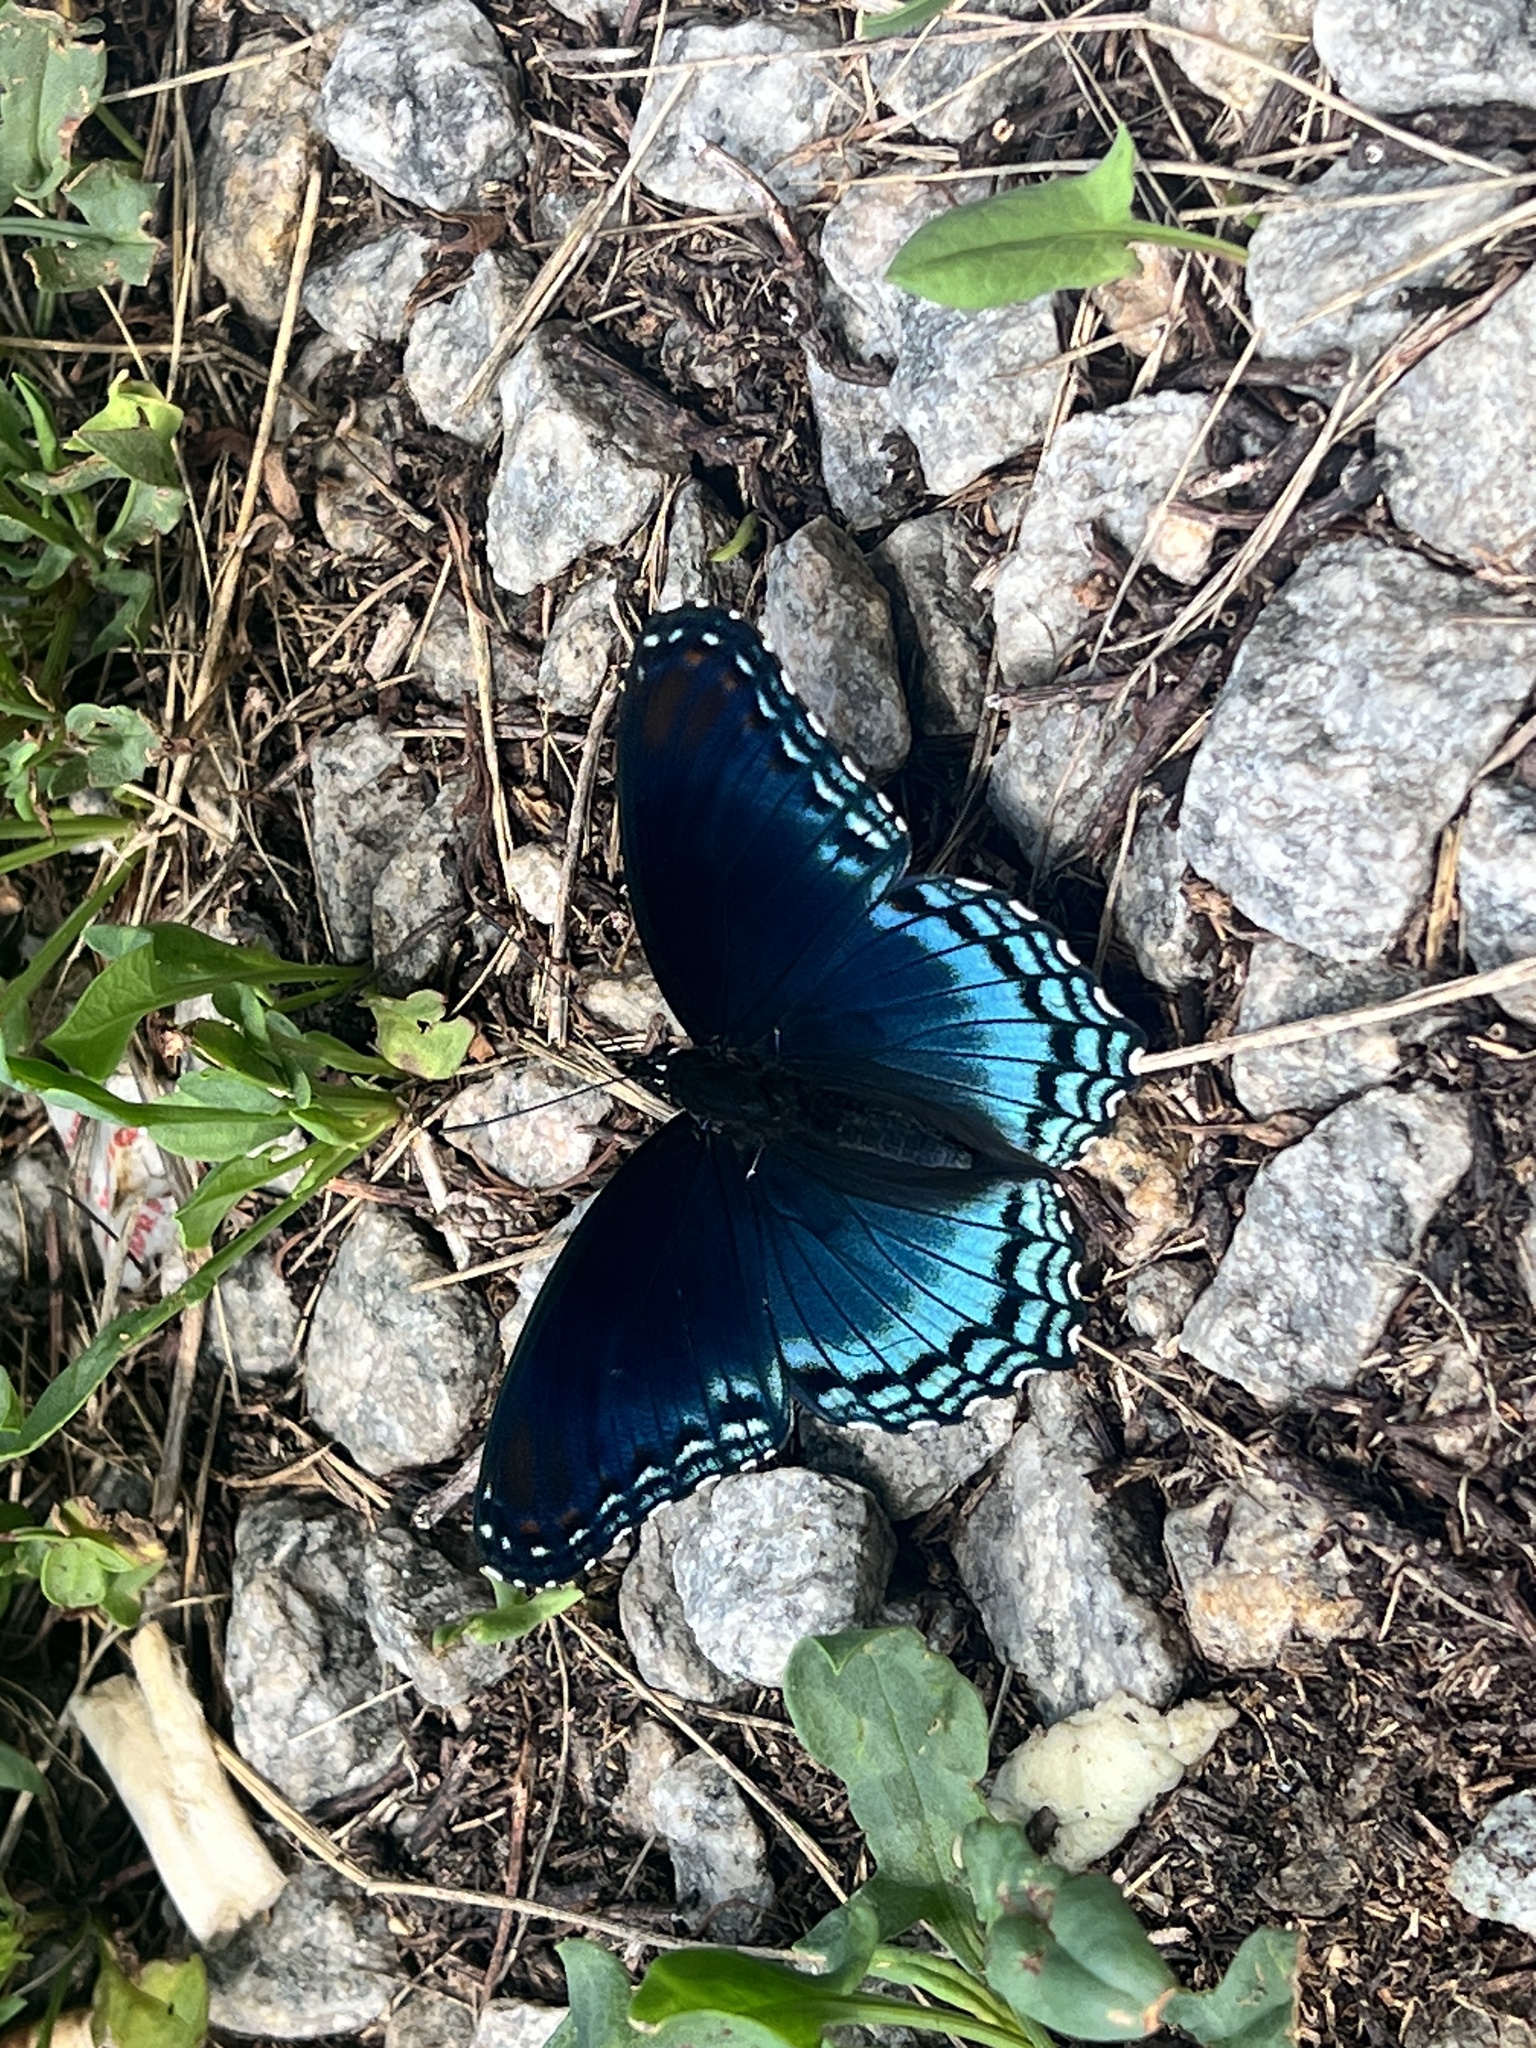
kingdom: Animalia
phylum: Arthropoda
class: Insecta
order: Lepidoptera
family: Nymphalidae
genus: Limenitis
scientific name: Limenitis astyanax
